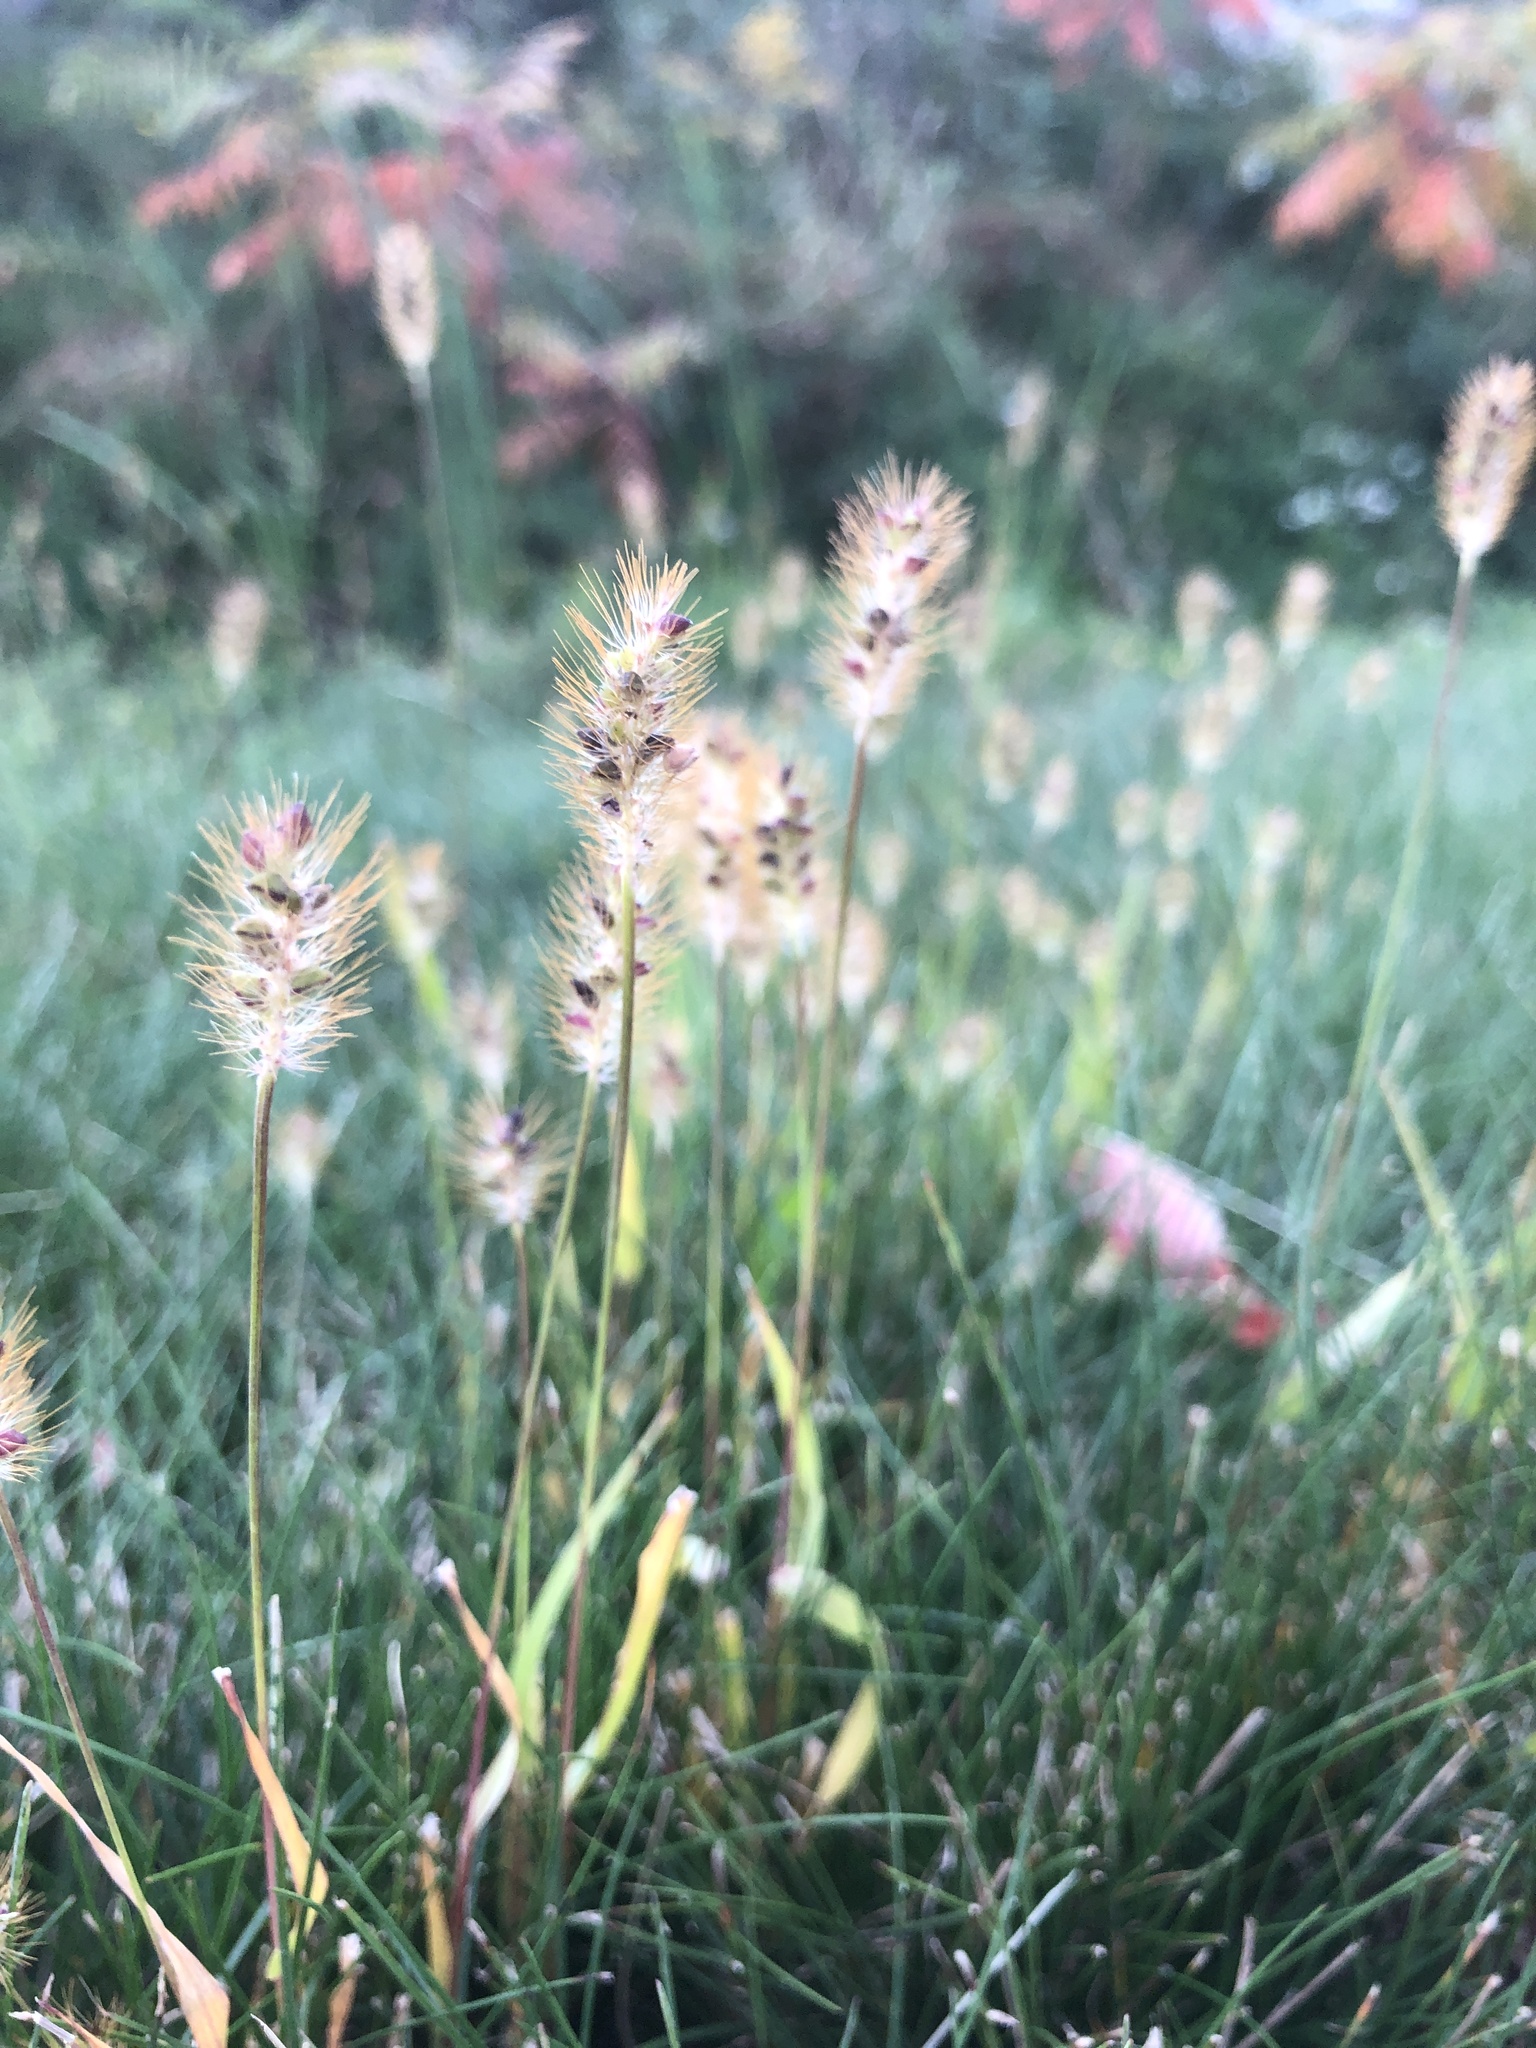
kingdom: Plantae
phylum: Tracheophyta
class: Liliopsida
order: Poales
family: Poaceae
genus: Setaria
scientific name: Setaria pumila
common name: Yellow bristle-grass
